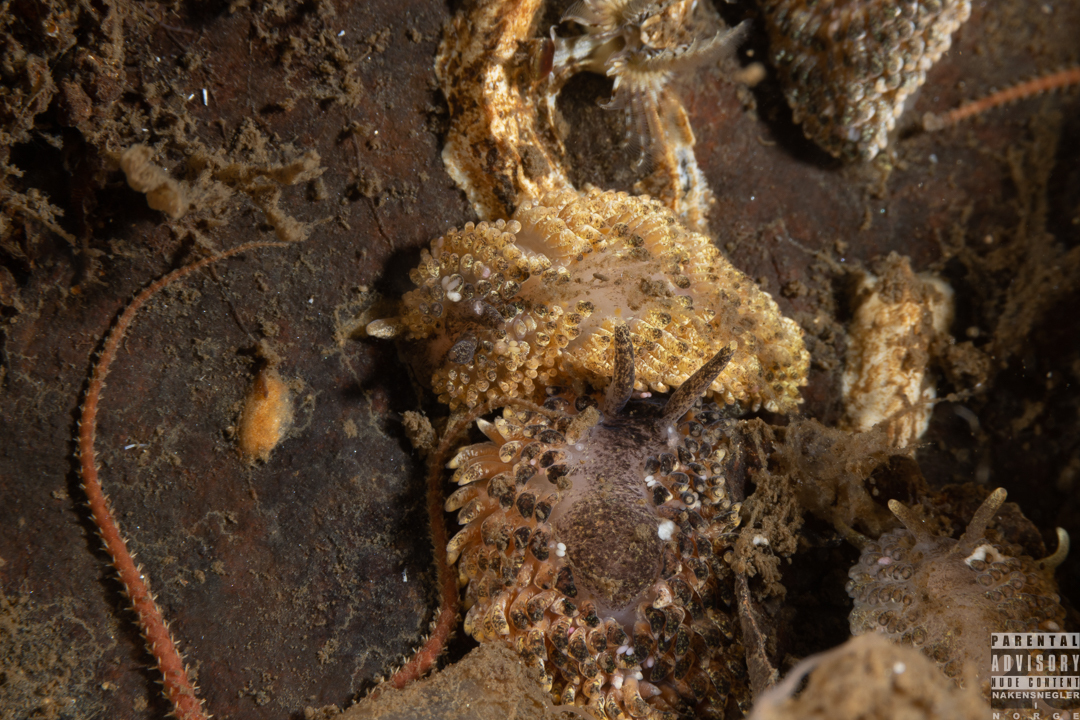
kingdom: Animalia
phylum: Mollusca
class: Gastropoda
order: Nudibranchia
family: Aeolidiidae
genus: Aeolidia
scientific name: Aeolidia papillosa
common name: Common grey sea slug
